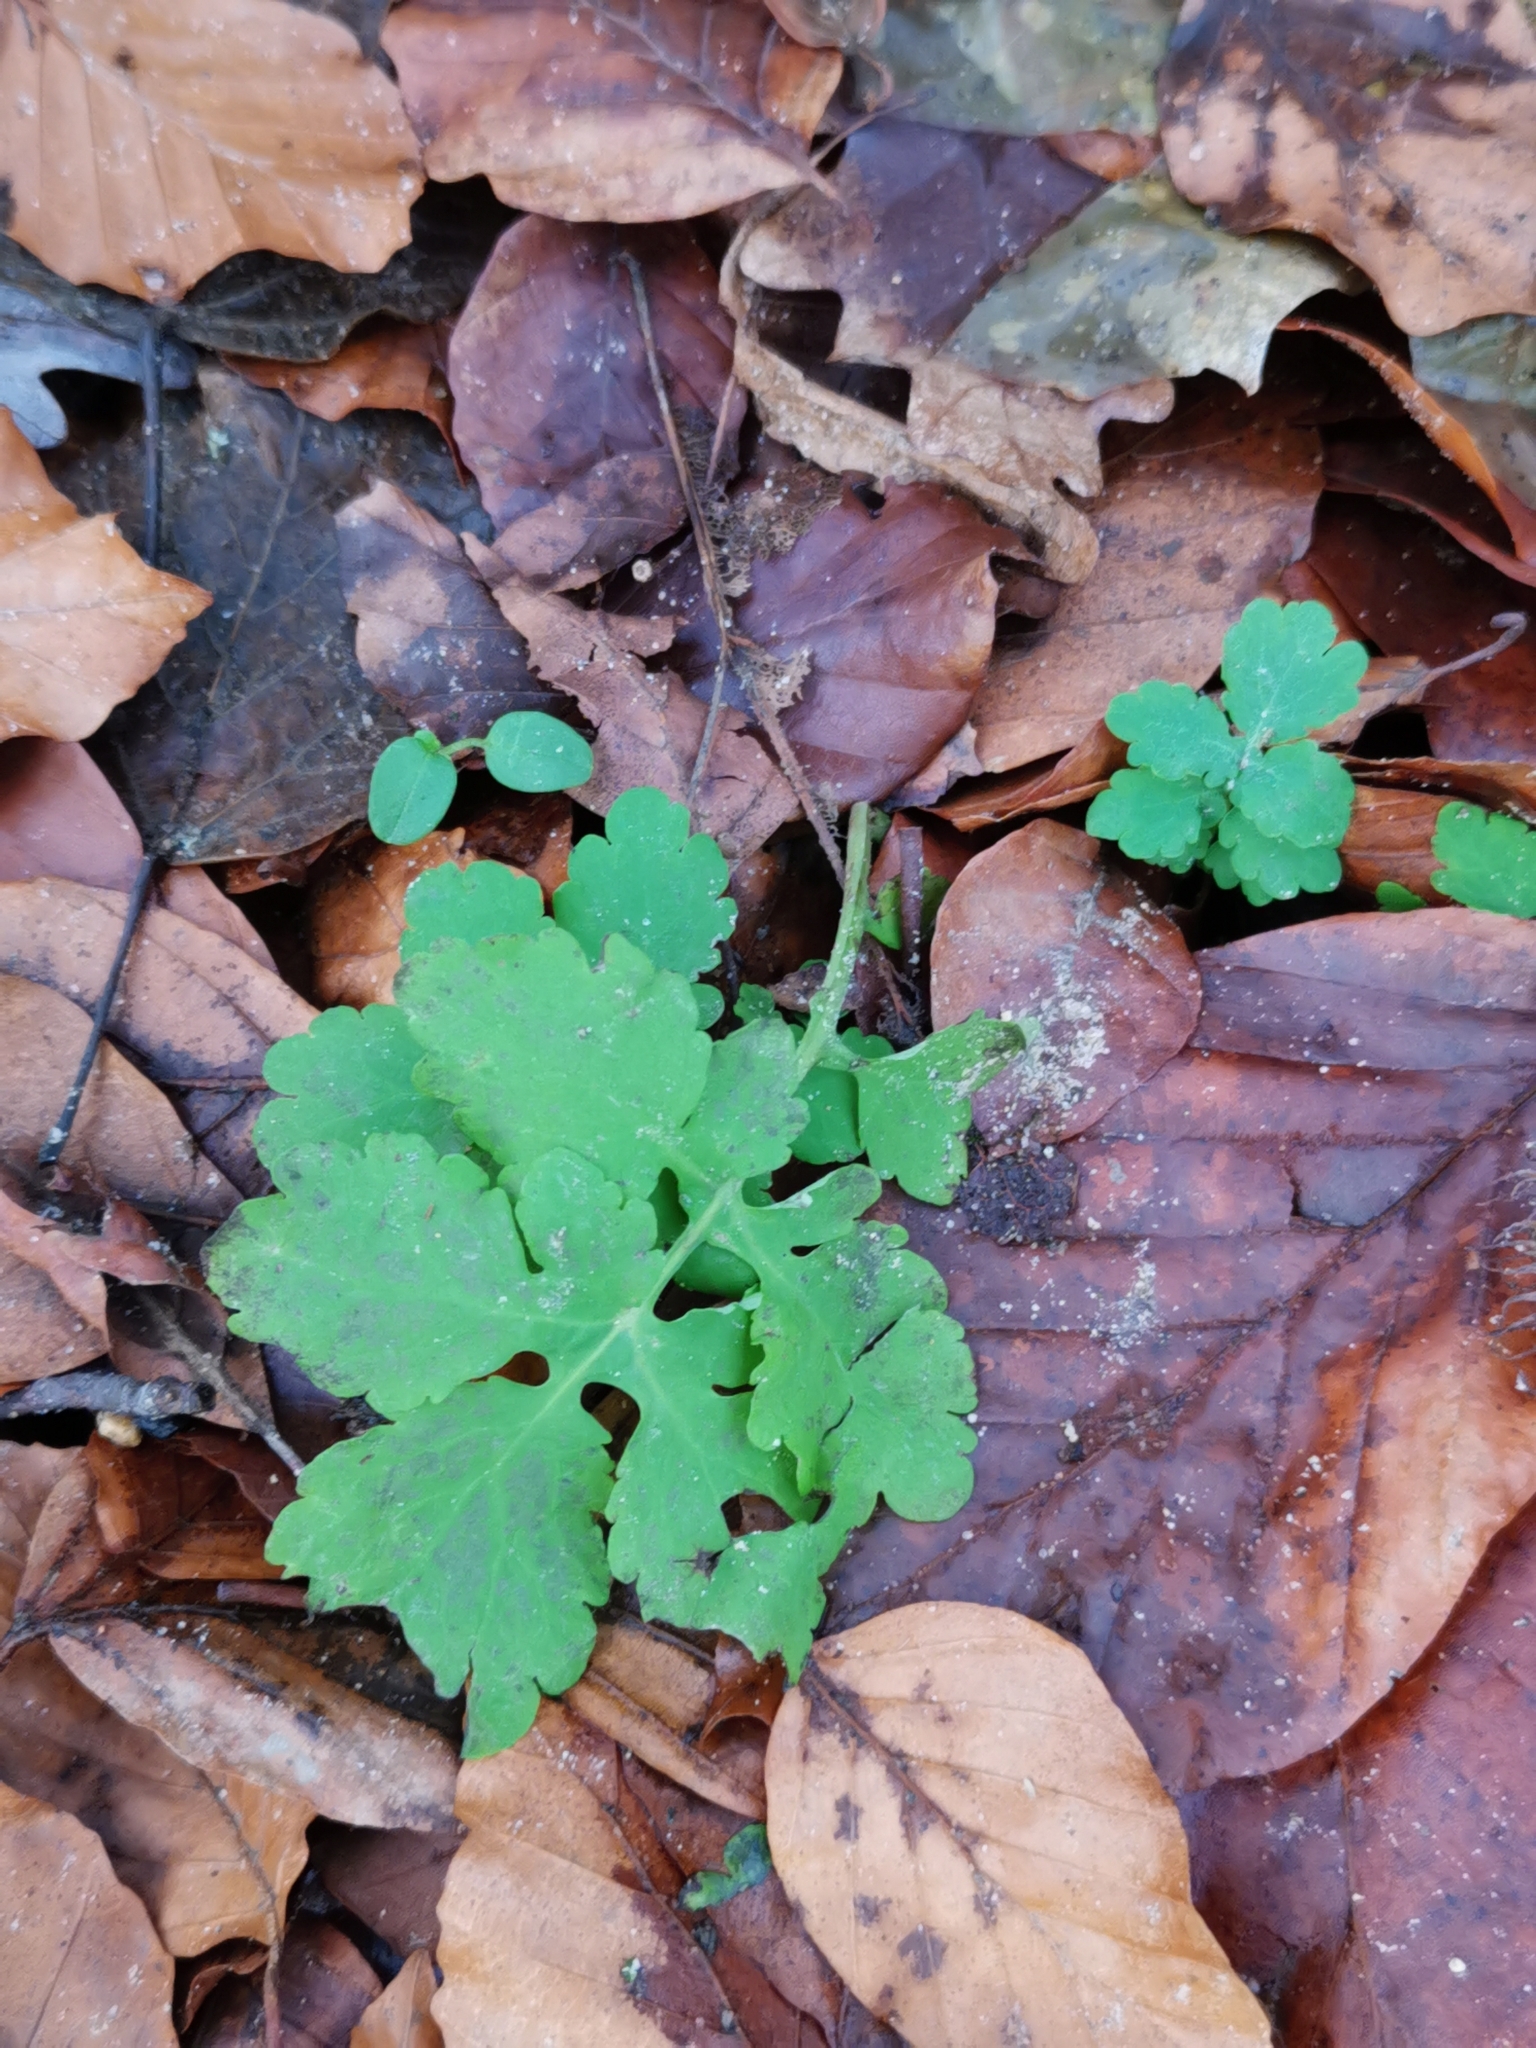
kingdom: Plantae
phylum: Tracheophyta
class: Magnoliopsida
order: Ranunculales
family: Papaveraceae
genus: Chelidonium
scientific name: Chelidonium majus
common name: Greater celandine
